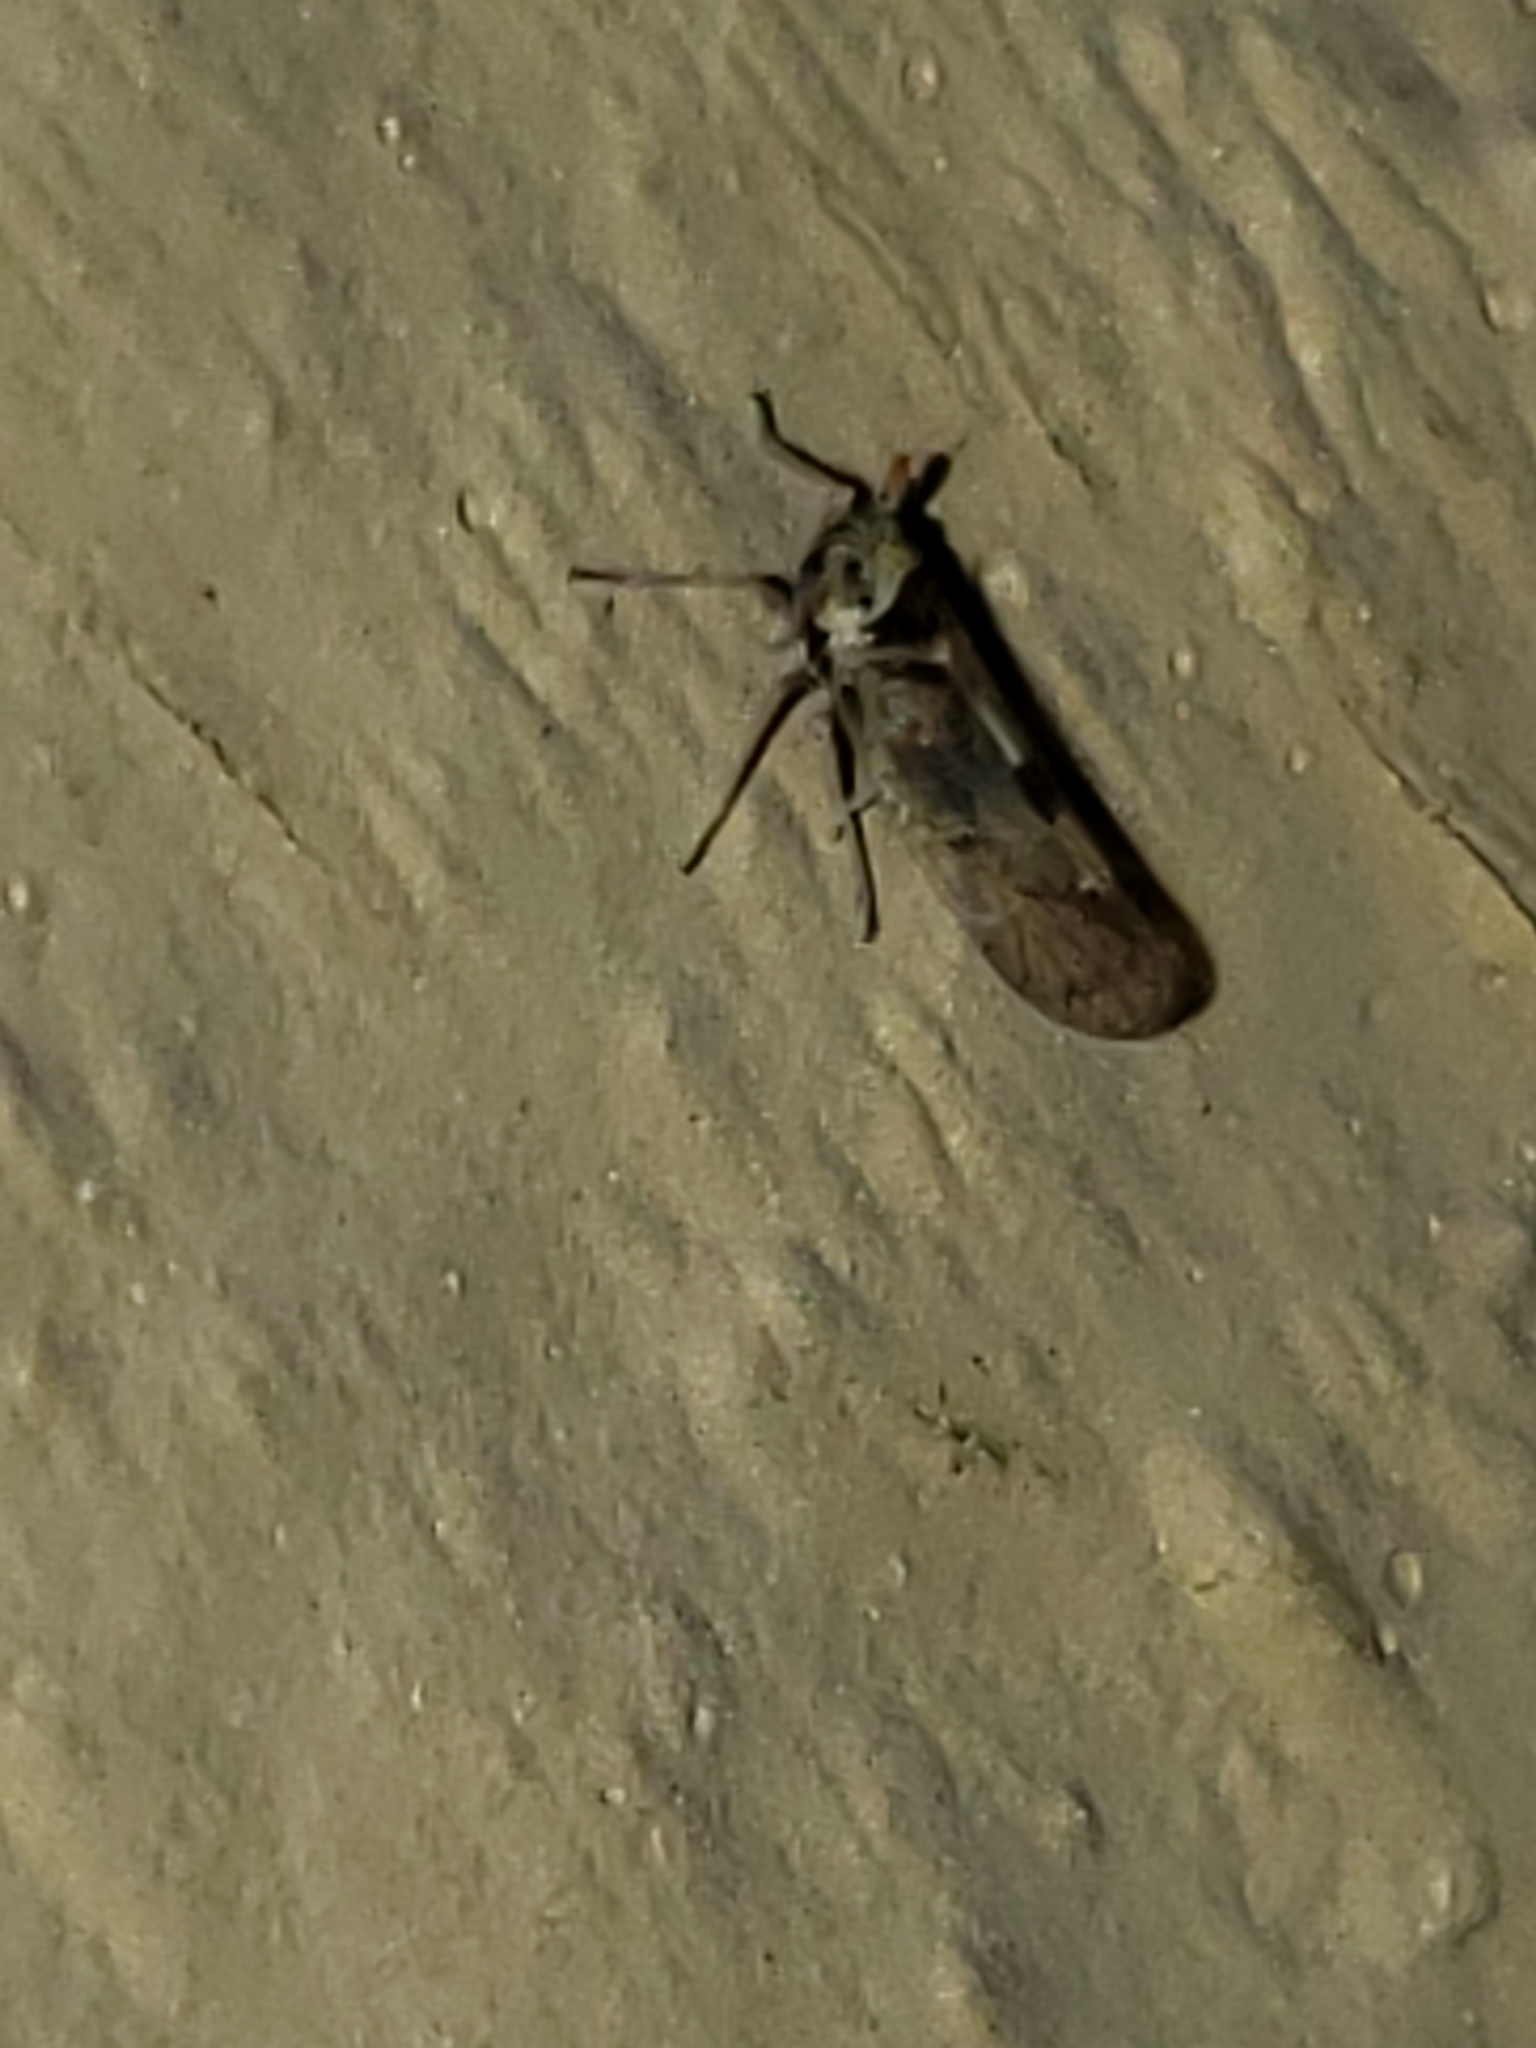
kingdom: Animalia
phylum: Arthropoda
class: Insecta
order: Hemiptera
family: Delphacidae
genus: Chionomus
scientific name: Chionomus
